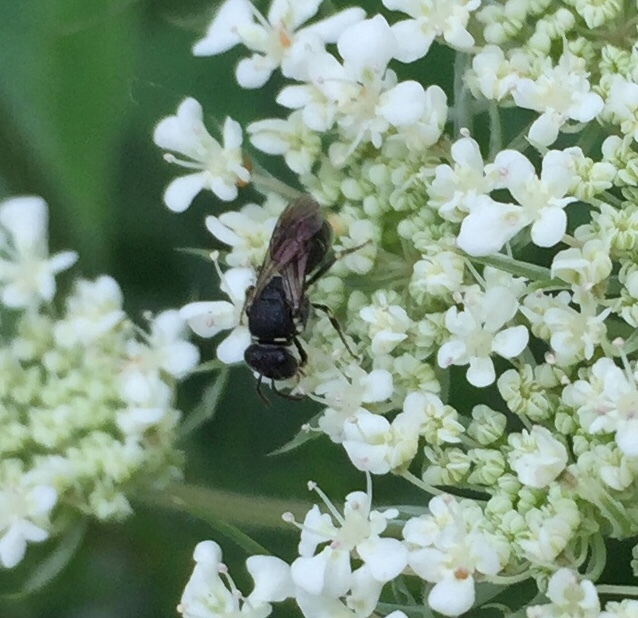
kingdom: Animalia
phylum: Arthropoda
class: Insecta
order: Hymenoptera
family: Colletidae
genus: Hylaeus
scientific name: Hylaeus
